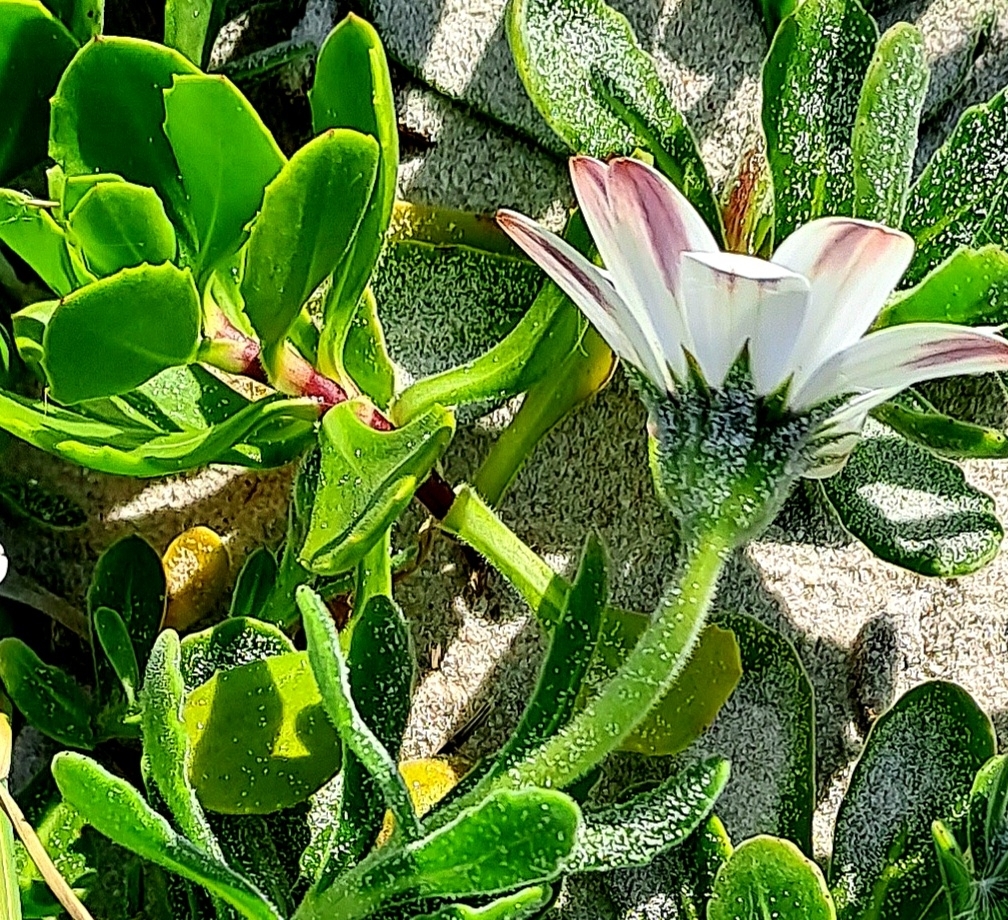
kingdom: Plantae
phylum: Tracheophyta
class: Magnoliopsida
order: Asterales
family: Asteraceae
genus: Dimorphotheca
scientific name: Dimorphotheca fruticosa
